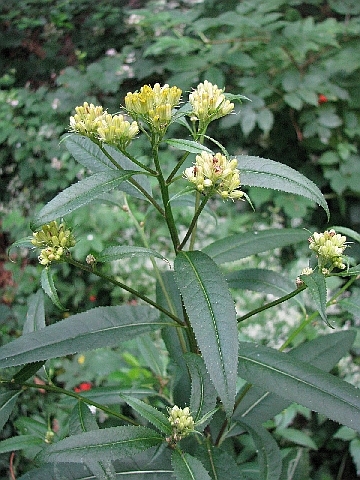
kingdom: Plantae
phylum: Tracheophyta
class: Magnoliopsida
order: Asterales
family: Asteraceae
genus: Senecio
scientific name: Senecio nemorensis
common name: Alpine ragwort
